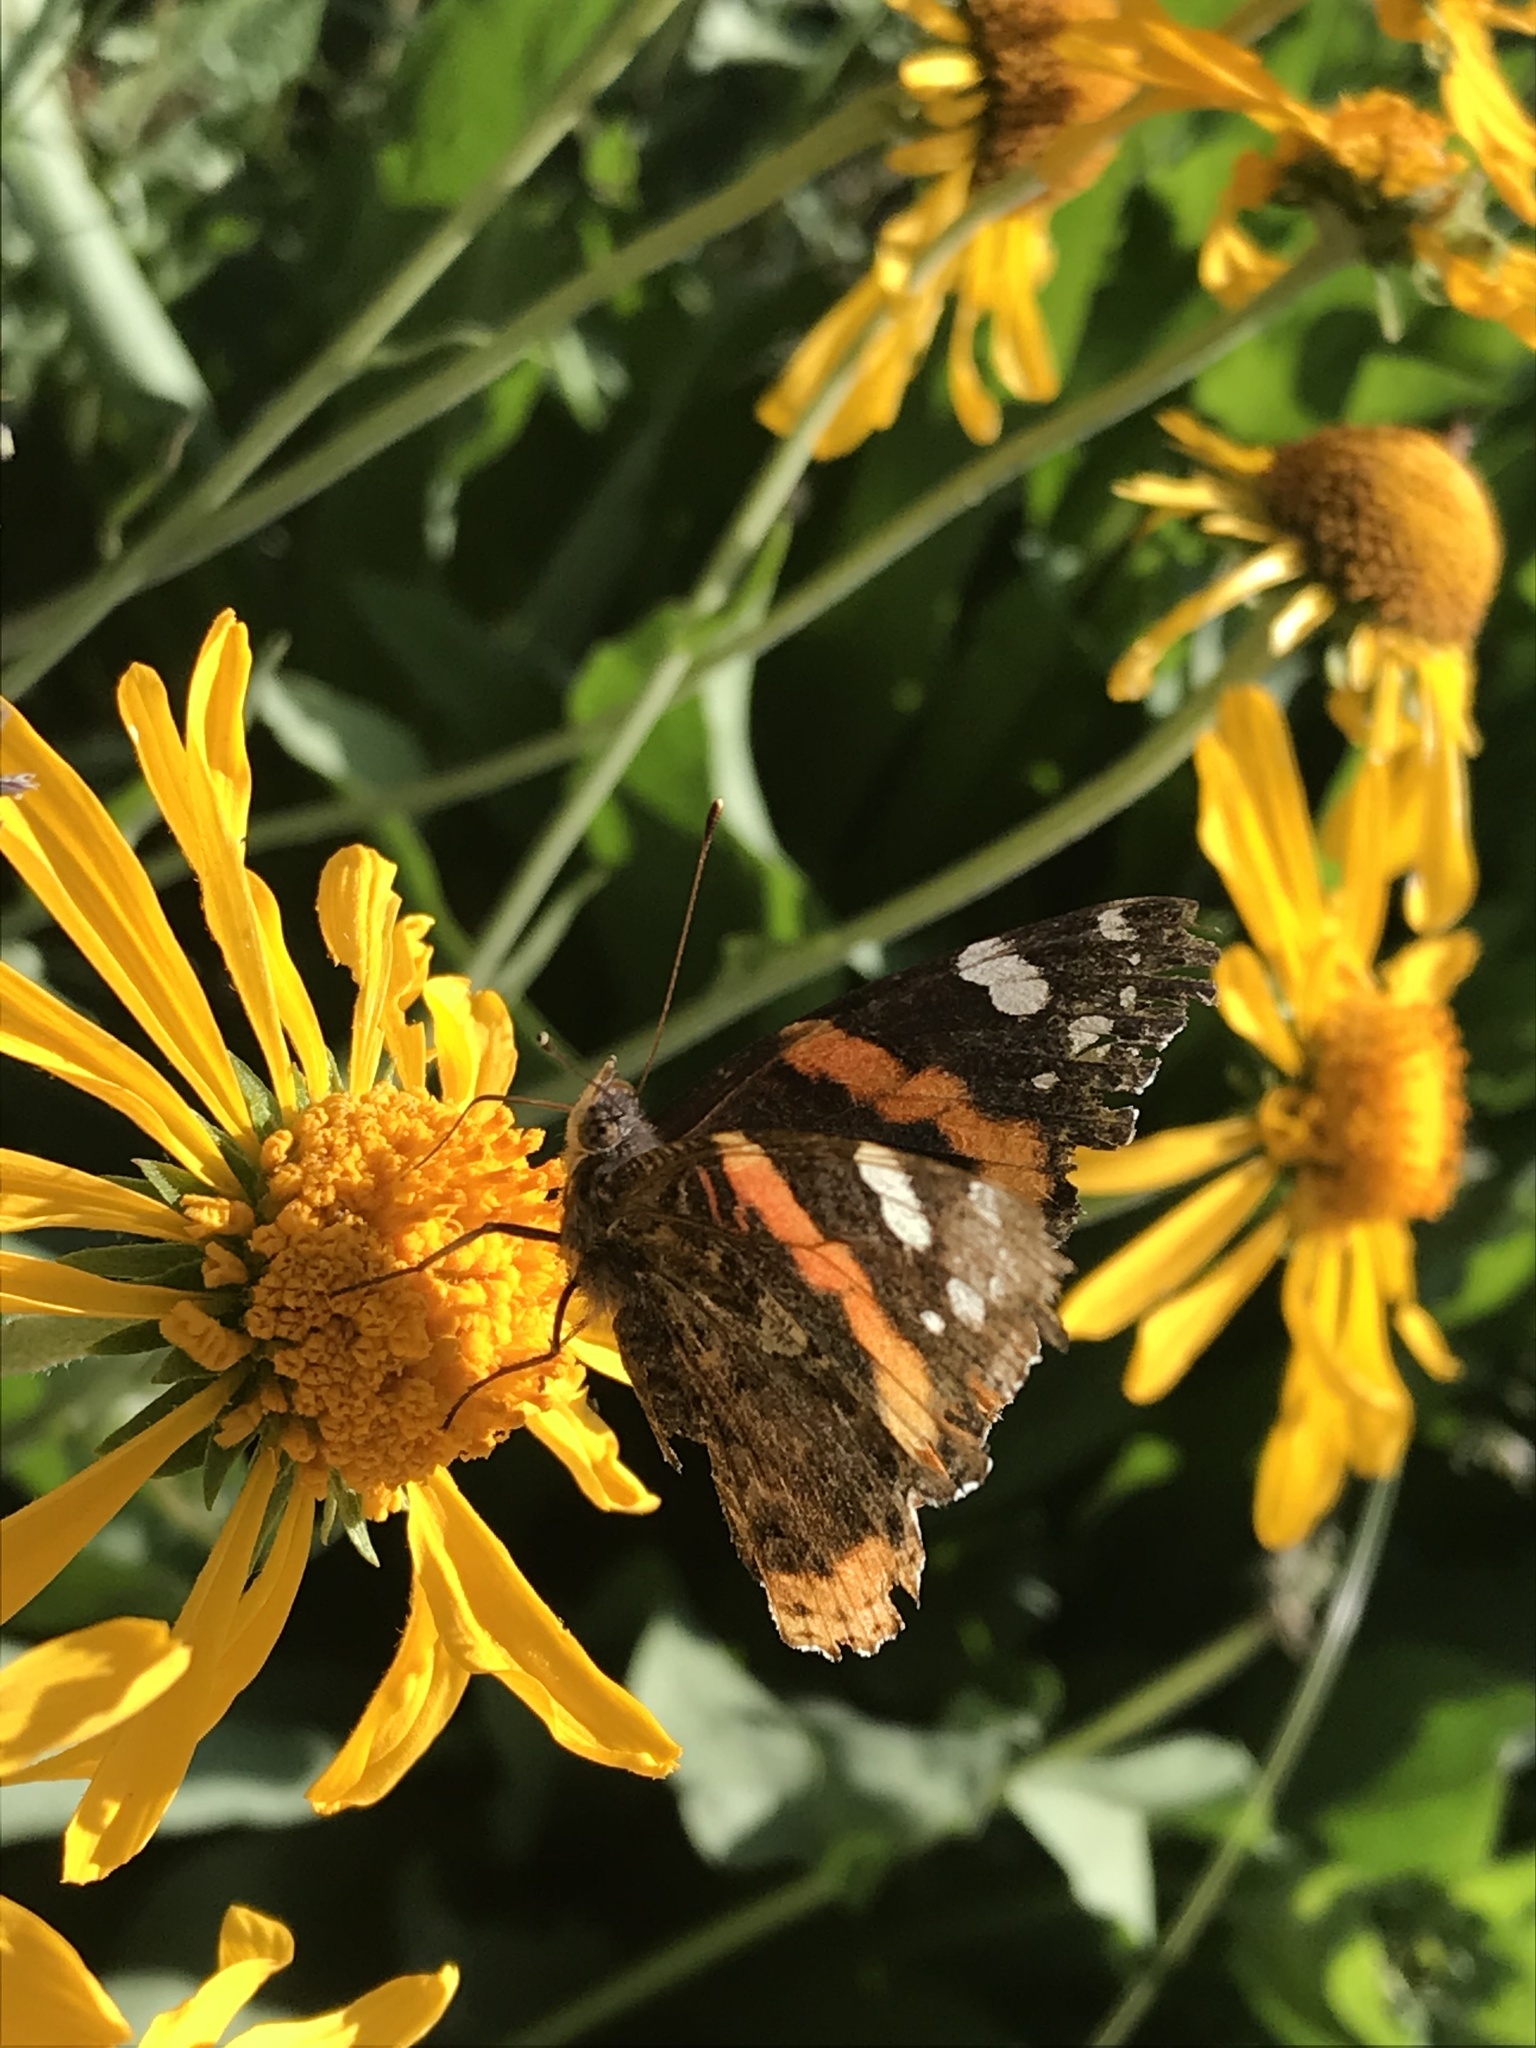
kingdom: Animalia
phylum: Arthropoda
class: Insecta
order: Lepidoptera
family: Nymphalidae
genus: Vanessa
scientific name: Vanessa atalanta
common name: Red admiral
